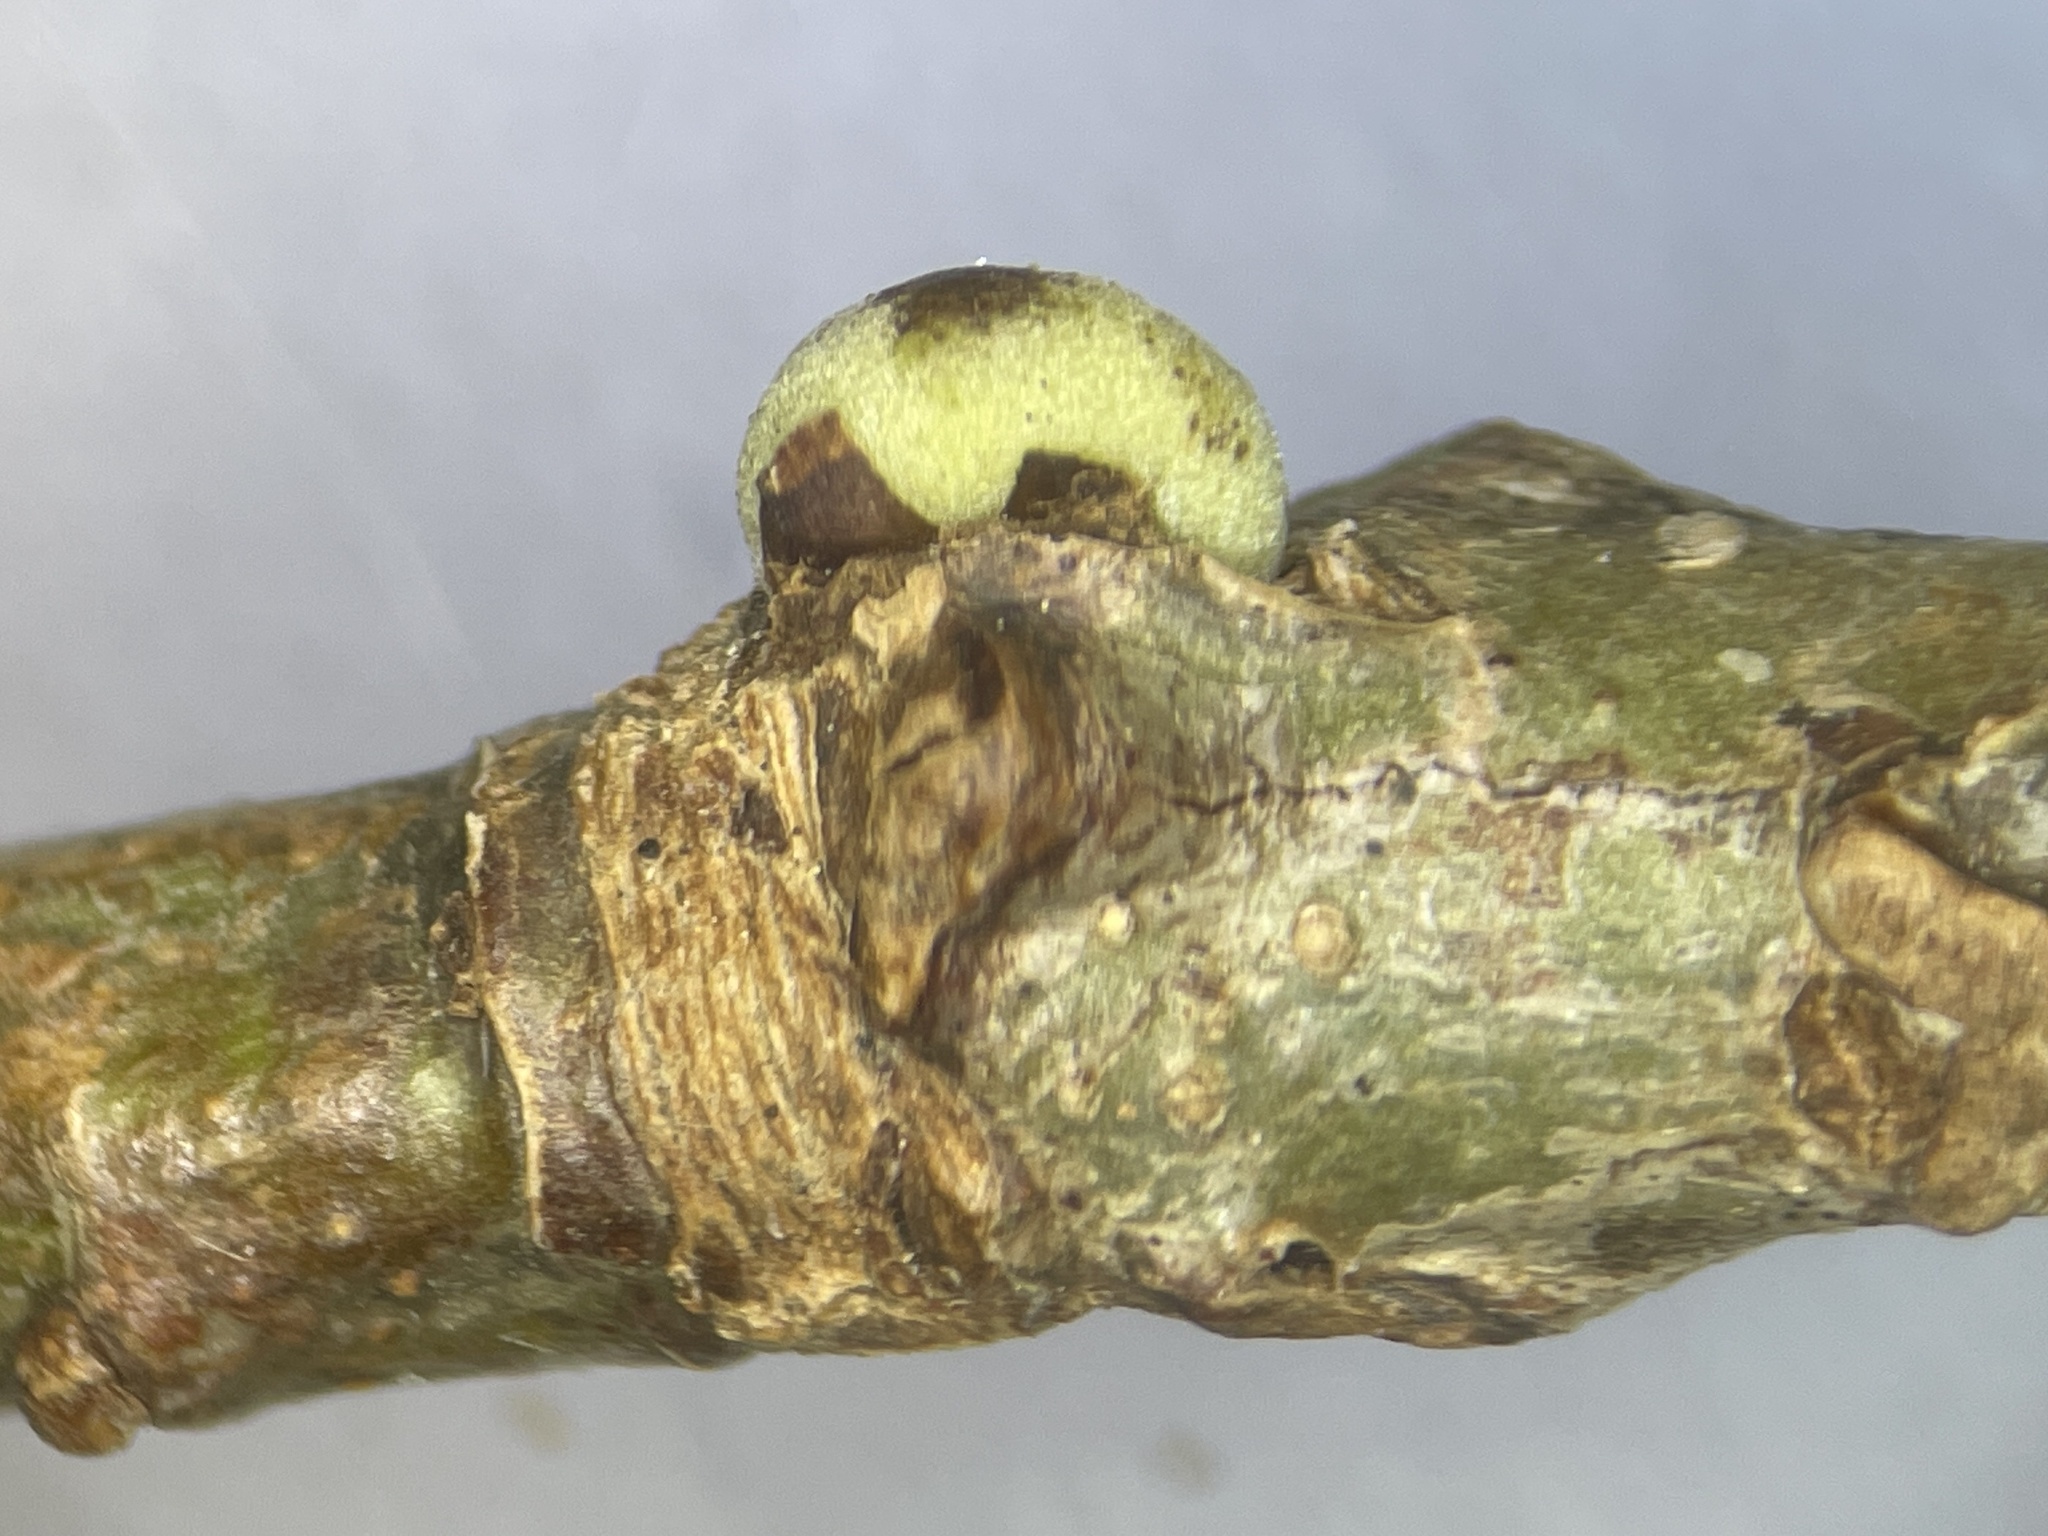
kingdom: Animalia
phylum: Arthropoda
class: Insecta
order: Hymenoptera
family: Cynipidae
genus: Disholcaspis
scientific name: Disholcaspis quercusglobulus
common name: Round bullet gall wasp
